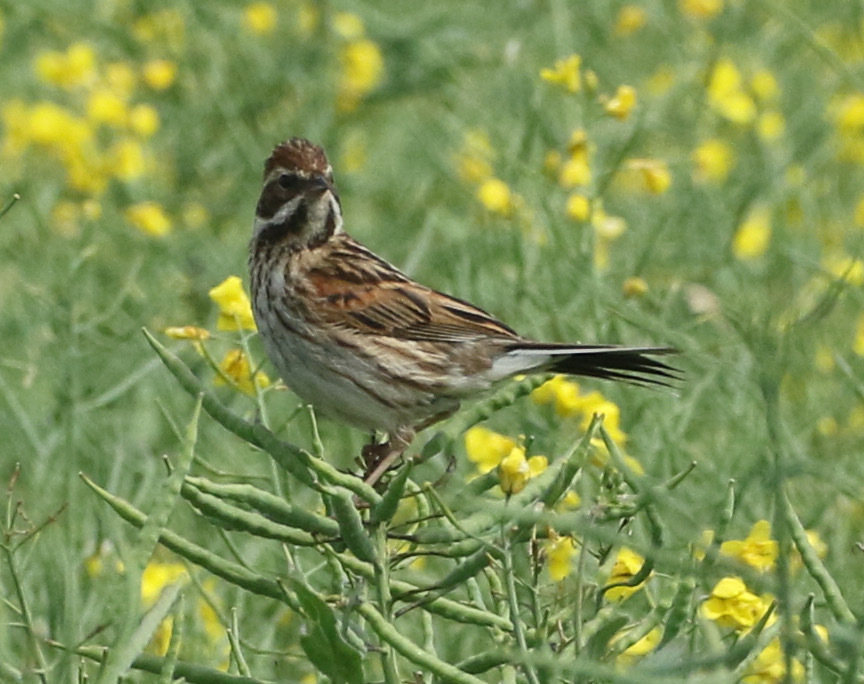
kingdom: Animalia
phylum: Chordata
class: Aves
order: Passeriformes
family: Emberizidae
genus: Emberiza
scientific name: Emberiza schoeniclus
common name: Reed bunting
